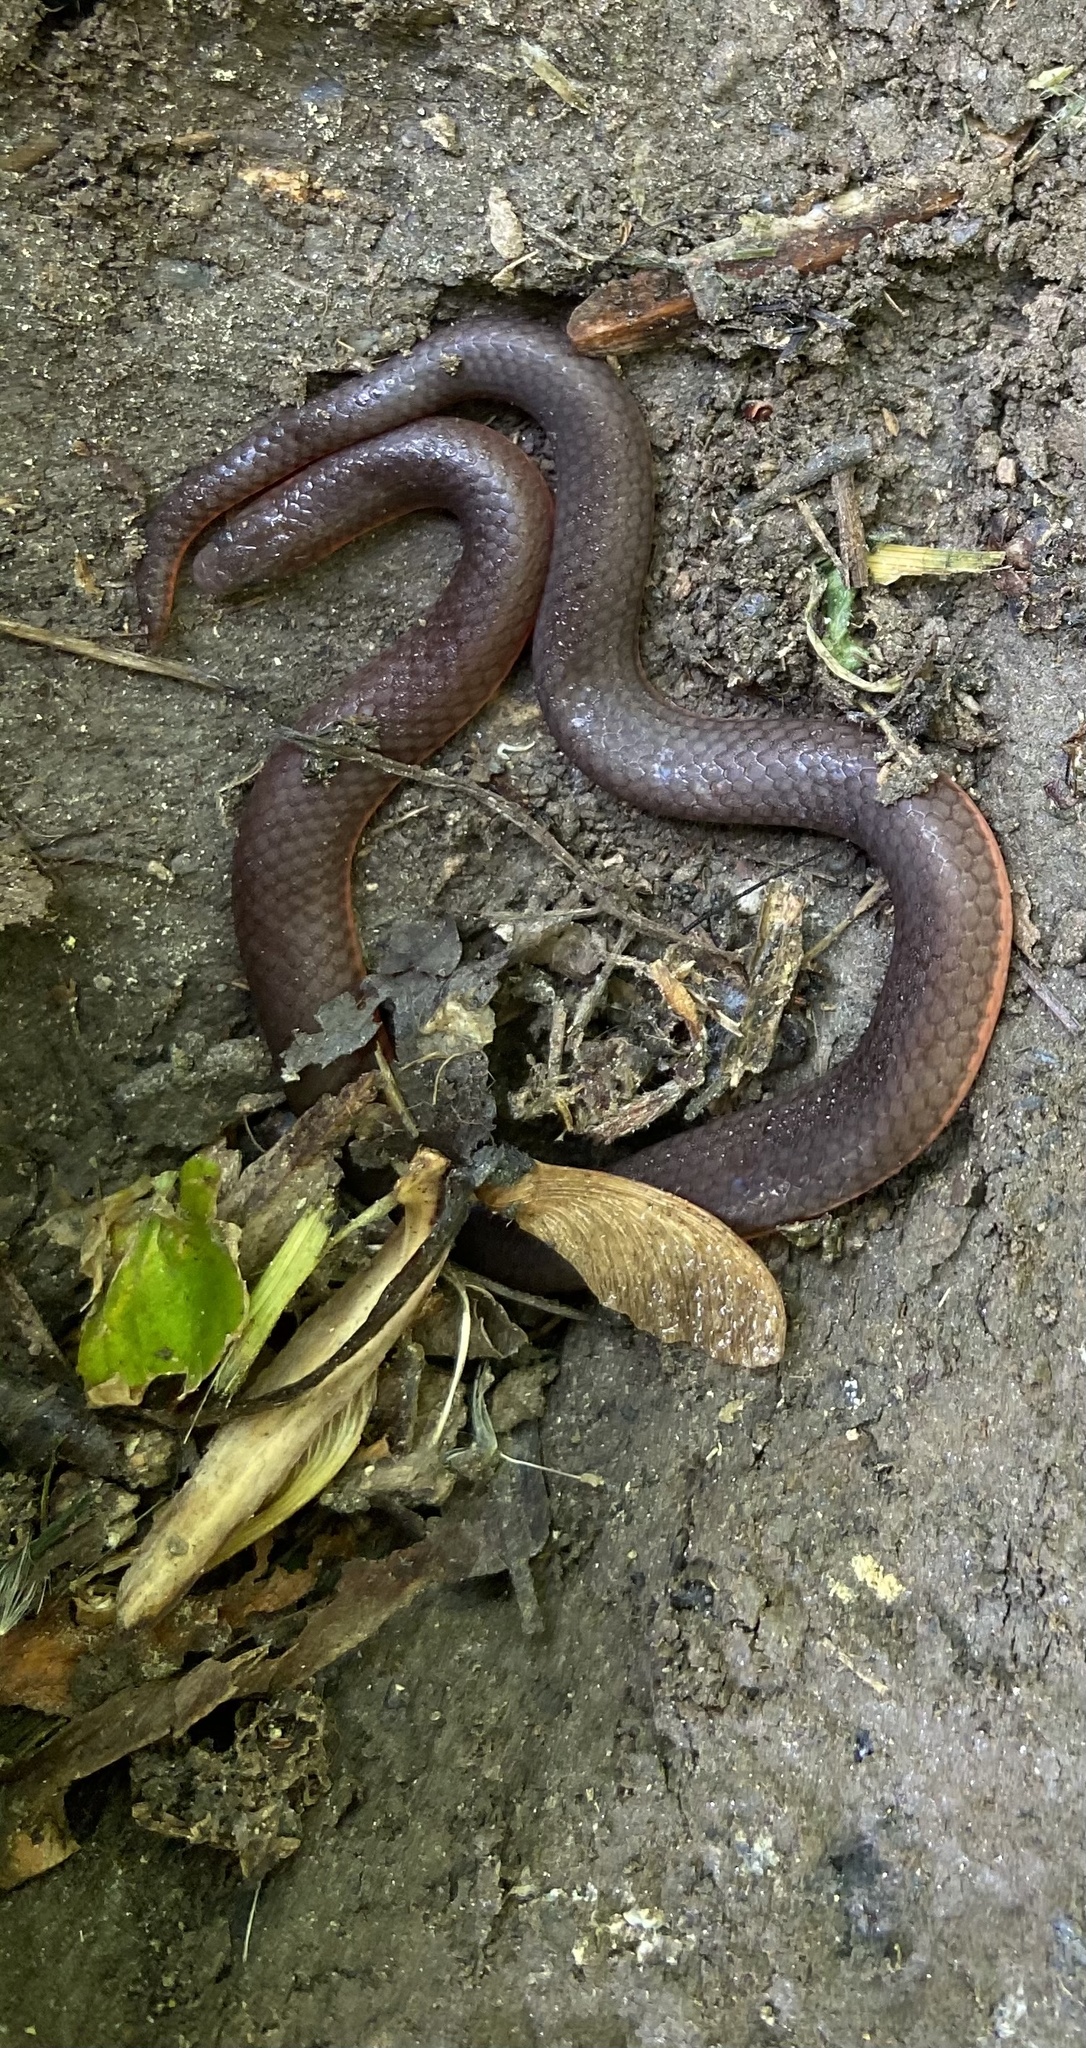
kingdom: Animalia
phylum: Chordata
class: Squamata
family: Colubridae
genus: Carphophis
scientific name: Carphophis amoenus
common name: Eastern worm snake
